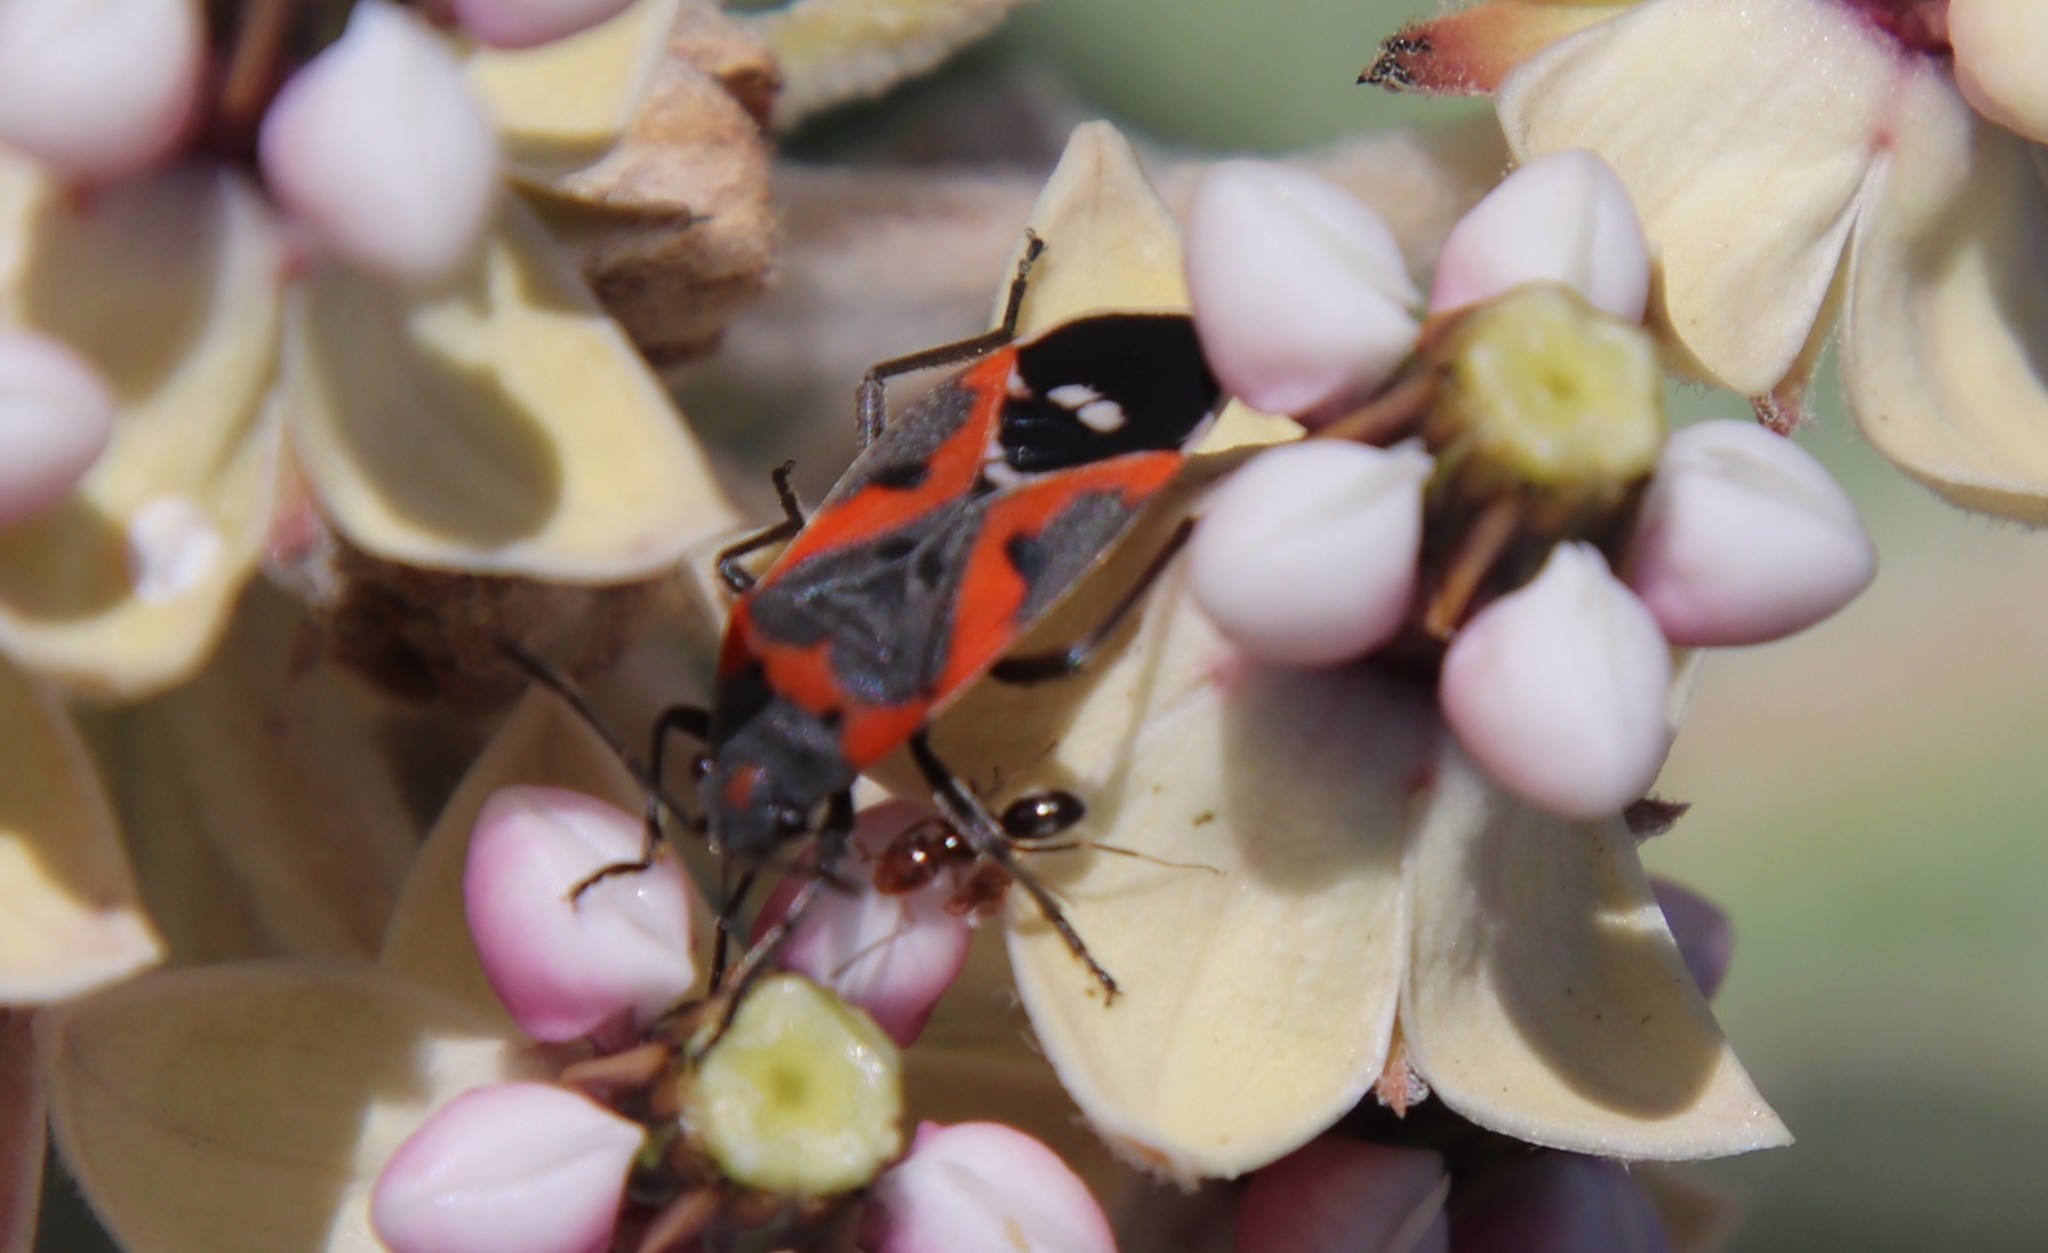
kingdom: Animalia
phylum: Arthropoda
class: Insecta
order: Hemiptera
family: Lygaeidae
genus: Lygaeus
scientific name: Lygaeus kalmii
